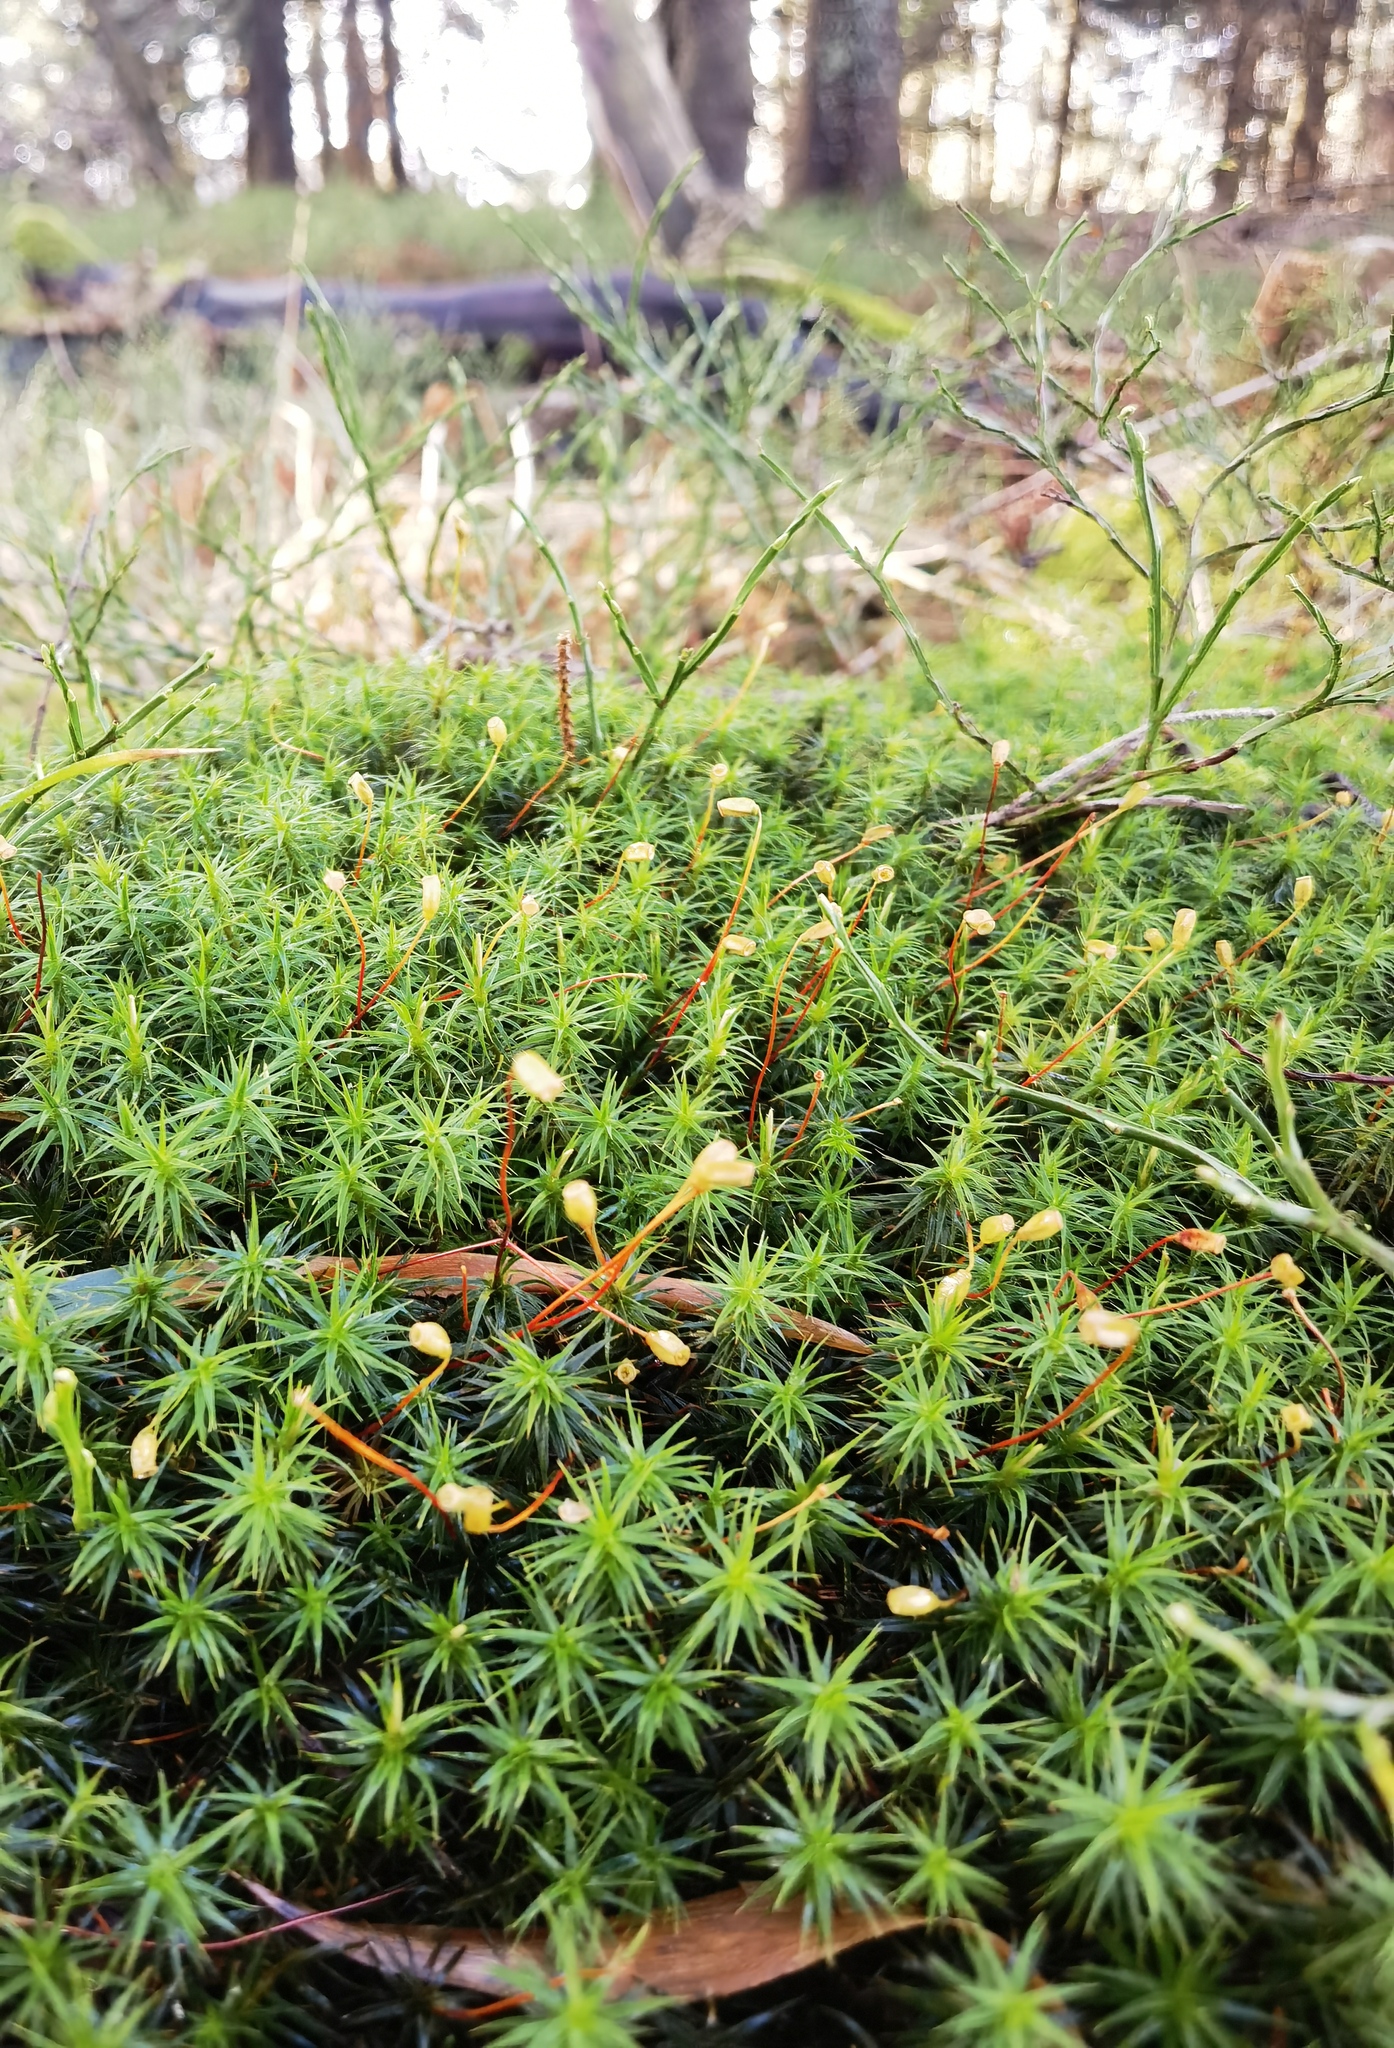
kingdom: Plantae
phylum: Bryophyta
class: Polytrichopsida
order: Polytrichales
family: Polytrichaceae
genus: Polytrichum
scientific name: Polytrichum formosum
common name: Bank haircap moss
